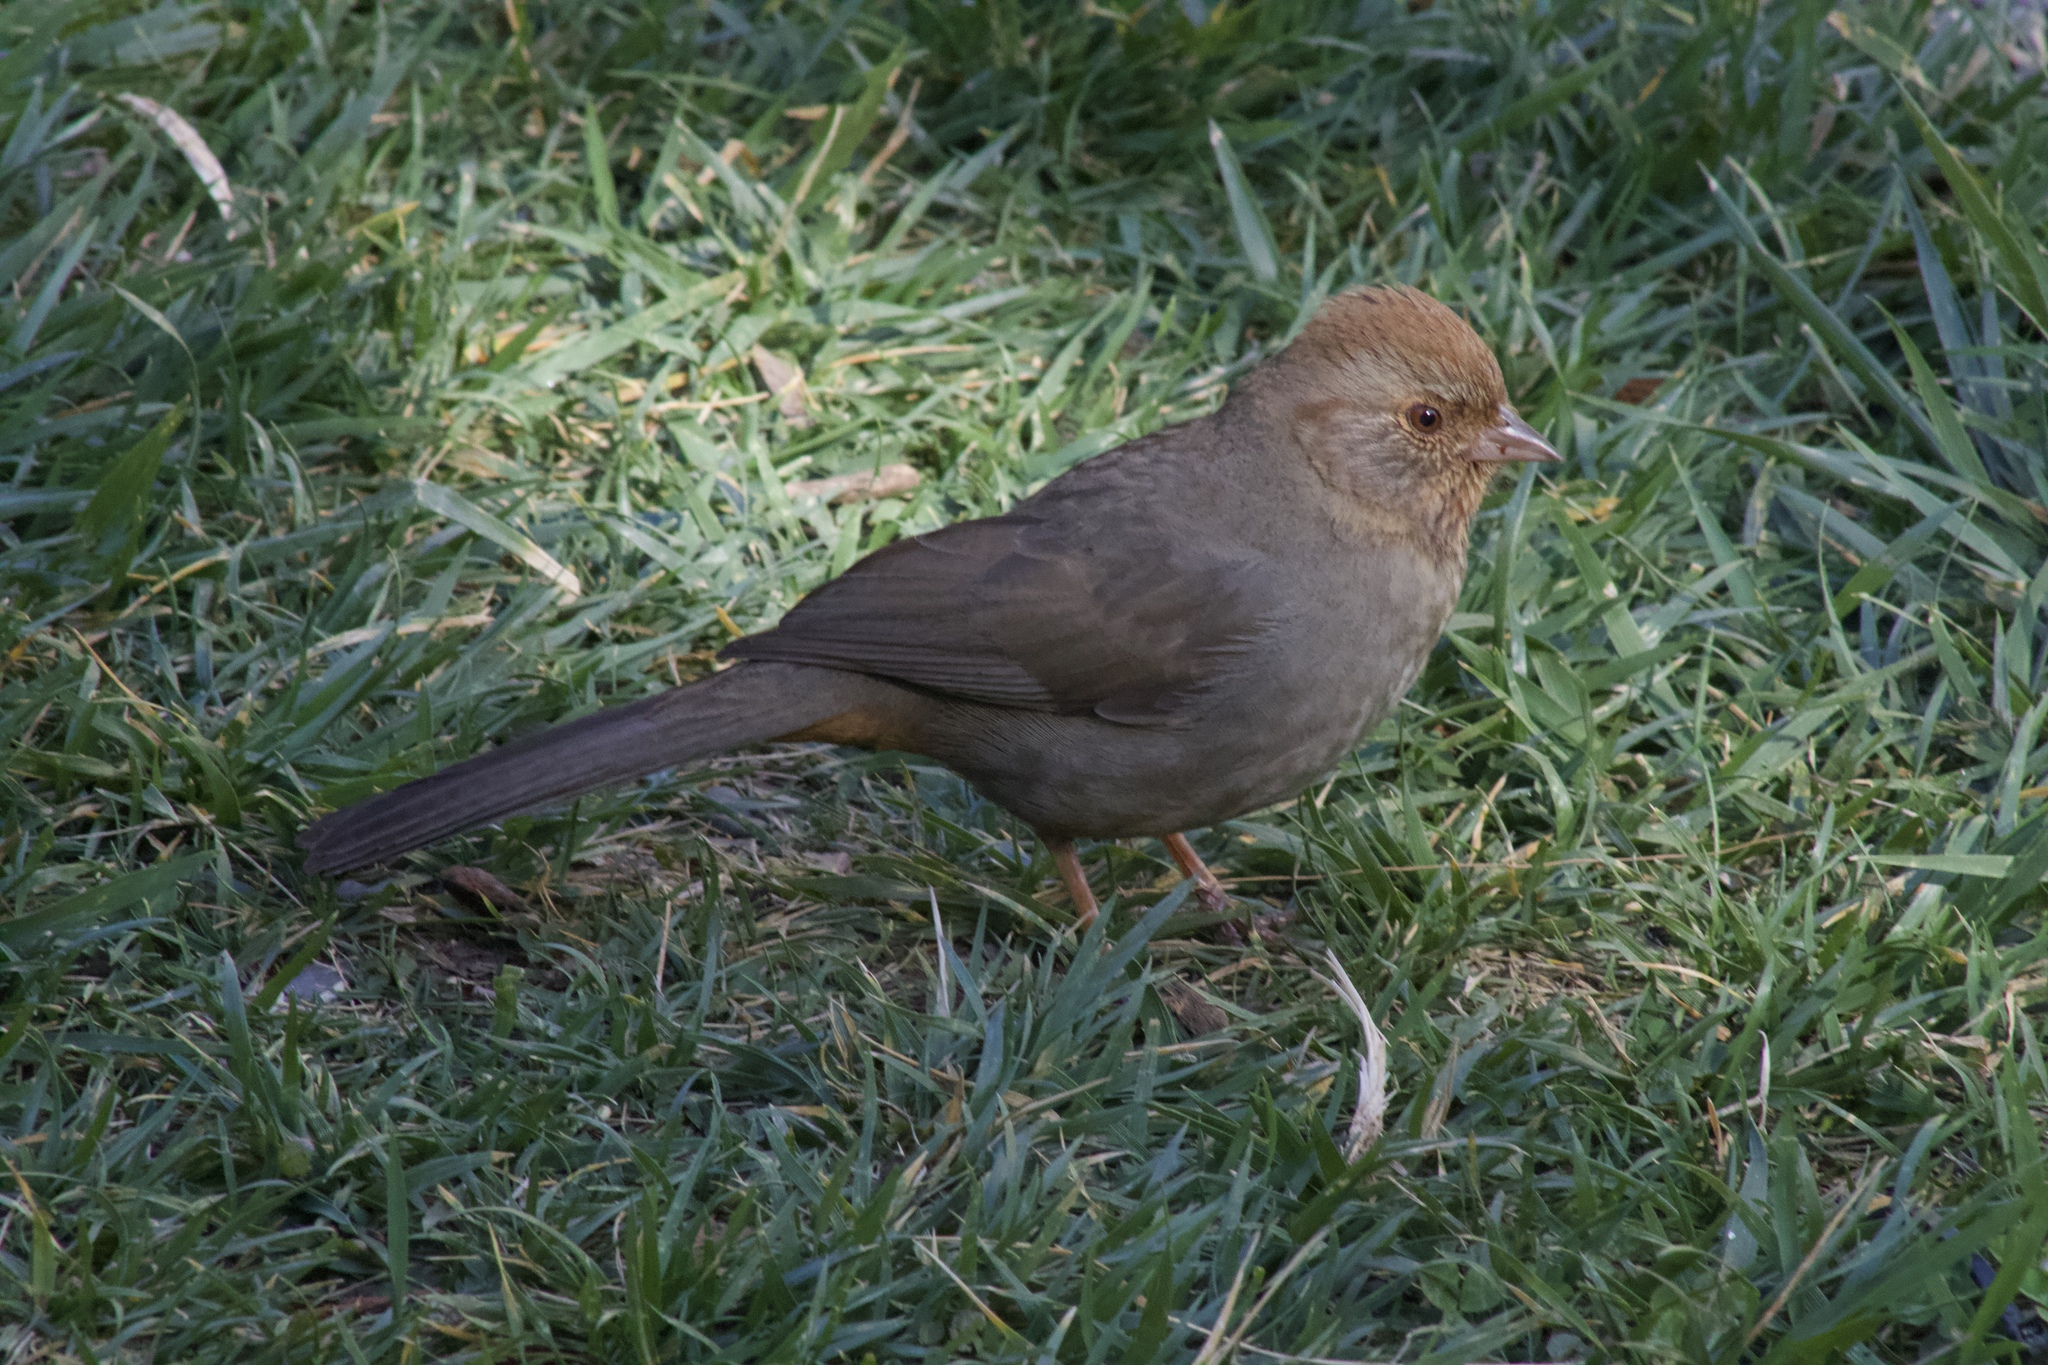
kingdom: Animalia
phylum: Chordata
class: Aves
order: Passeriformes
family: Passerellidae
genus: Melozone
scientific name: Melozone crissalis
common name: California towhee
